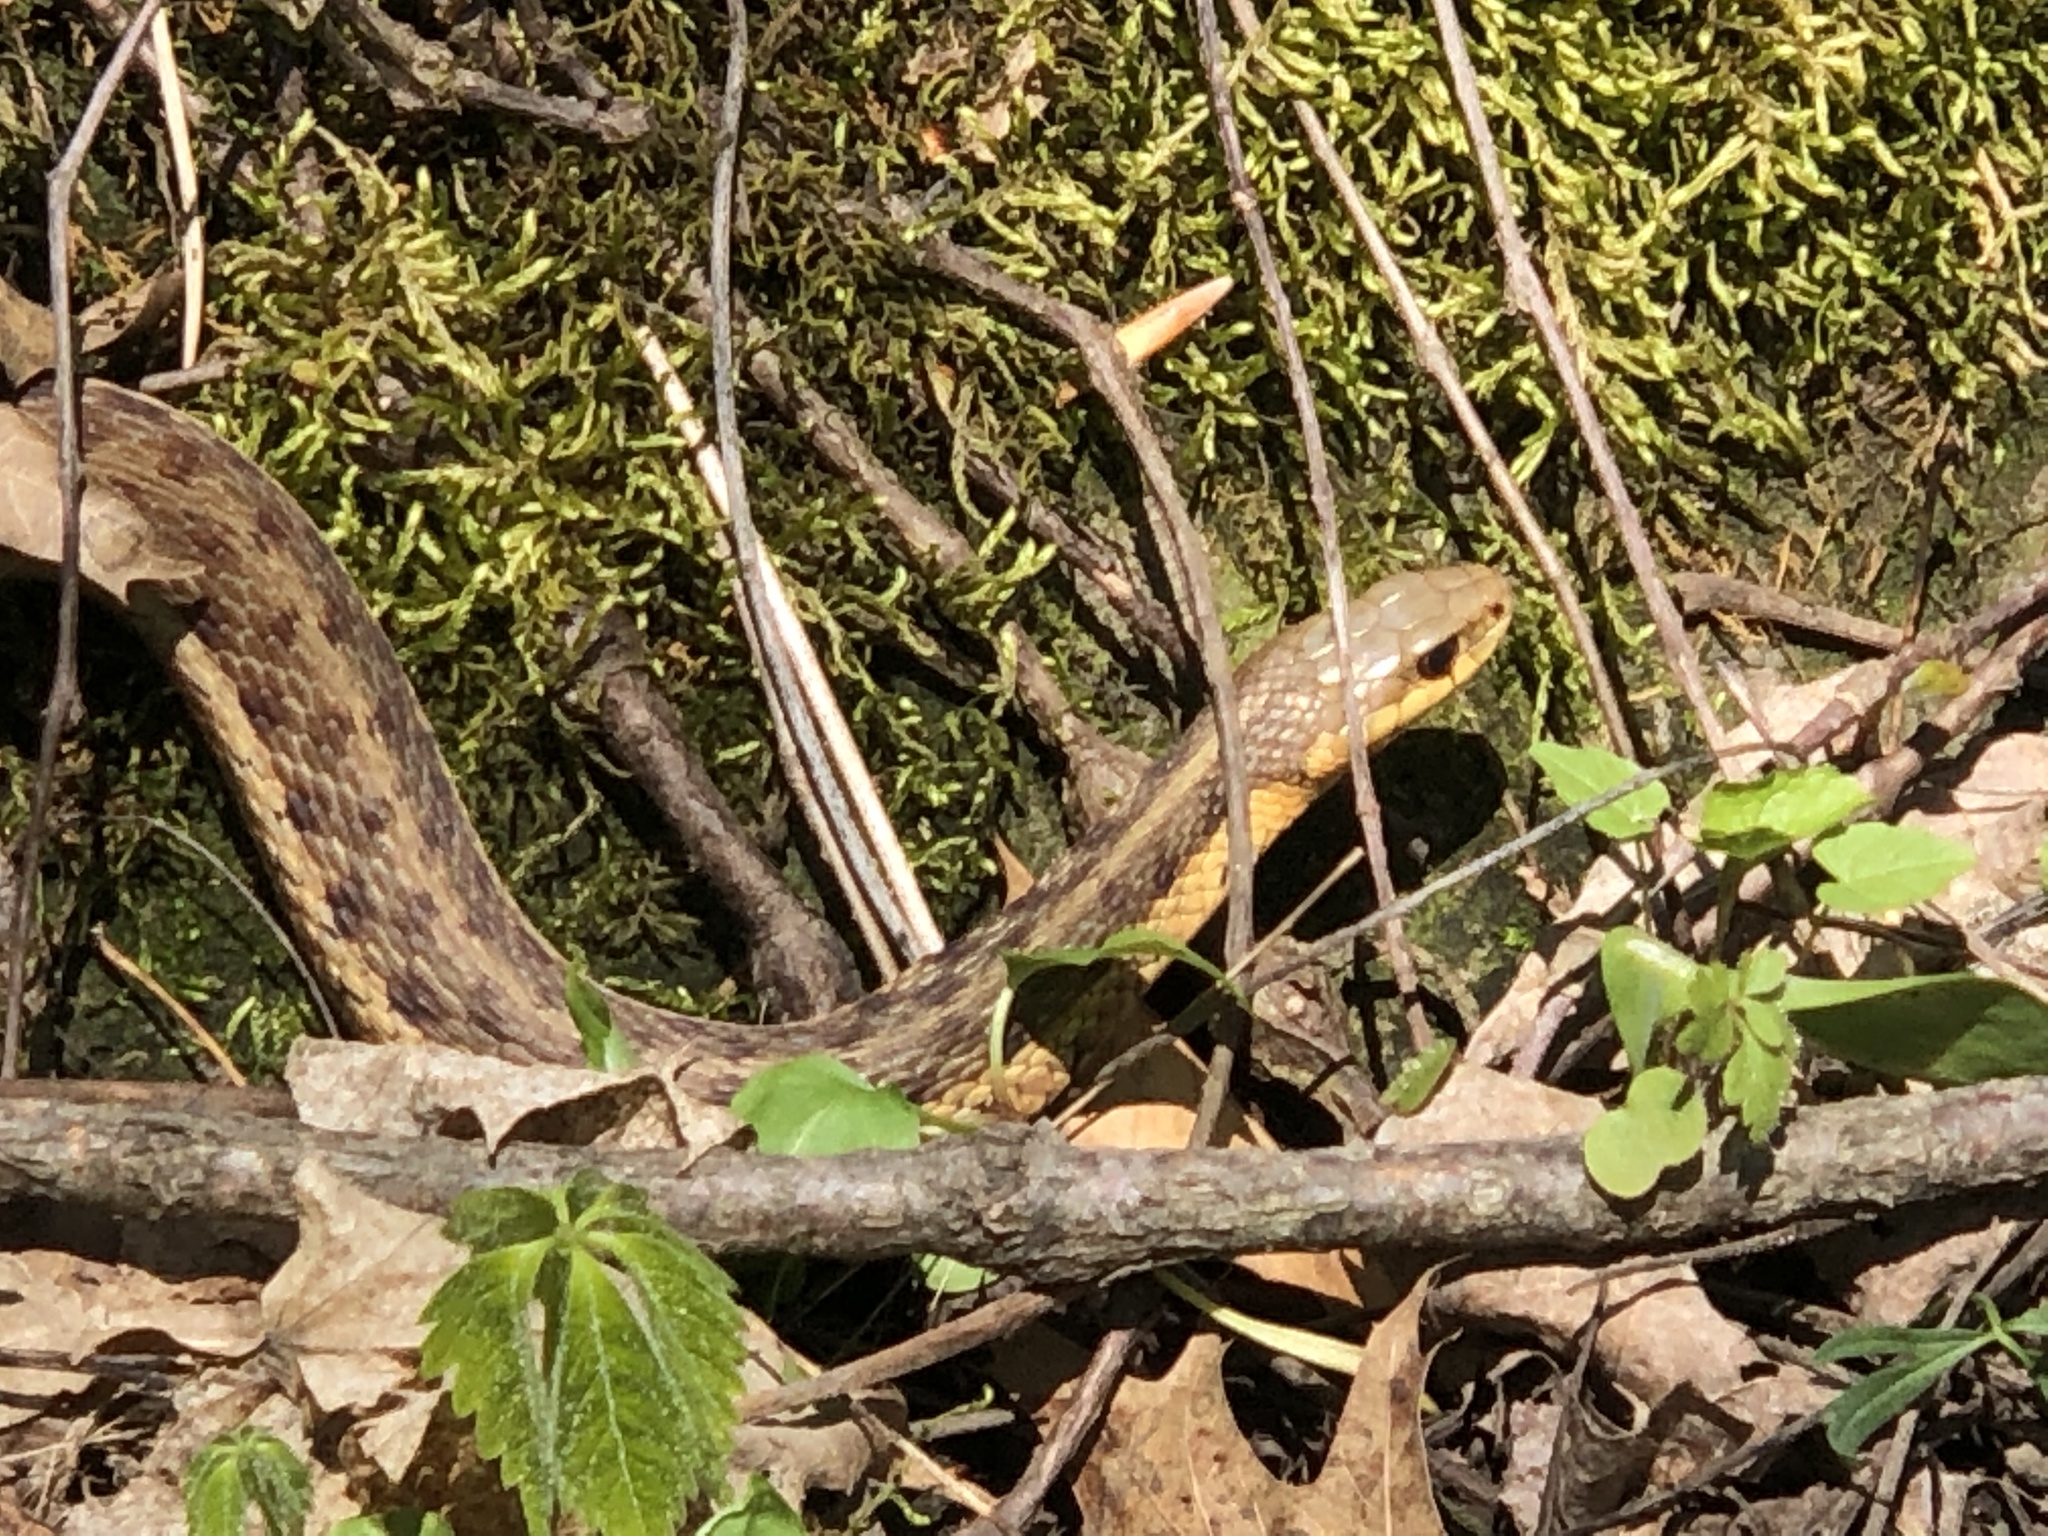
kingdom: Animalia
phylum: Chordata
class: Squamata
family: Colubridae
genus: Thamnophis
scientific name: Thamnophis sirtalis
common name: Common garter snake
